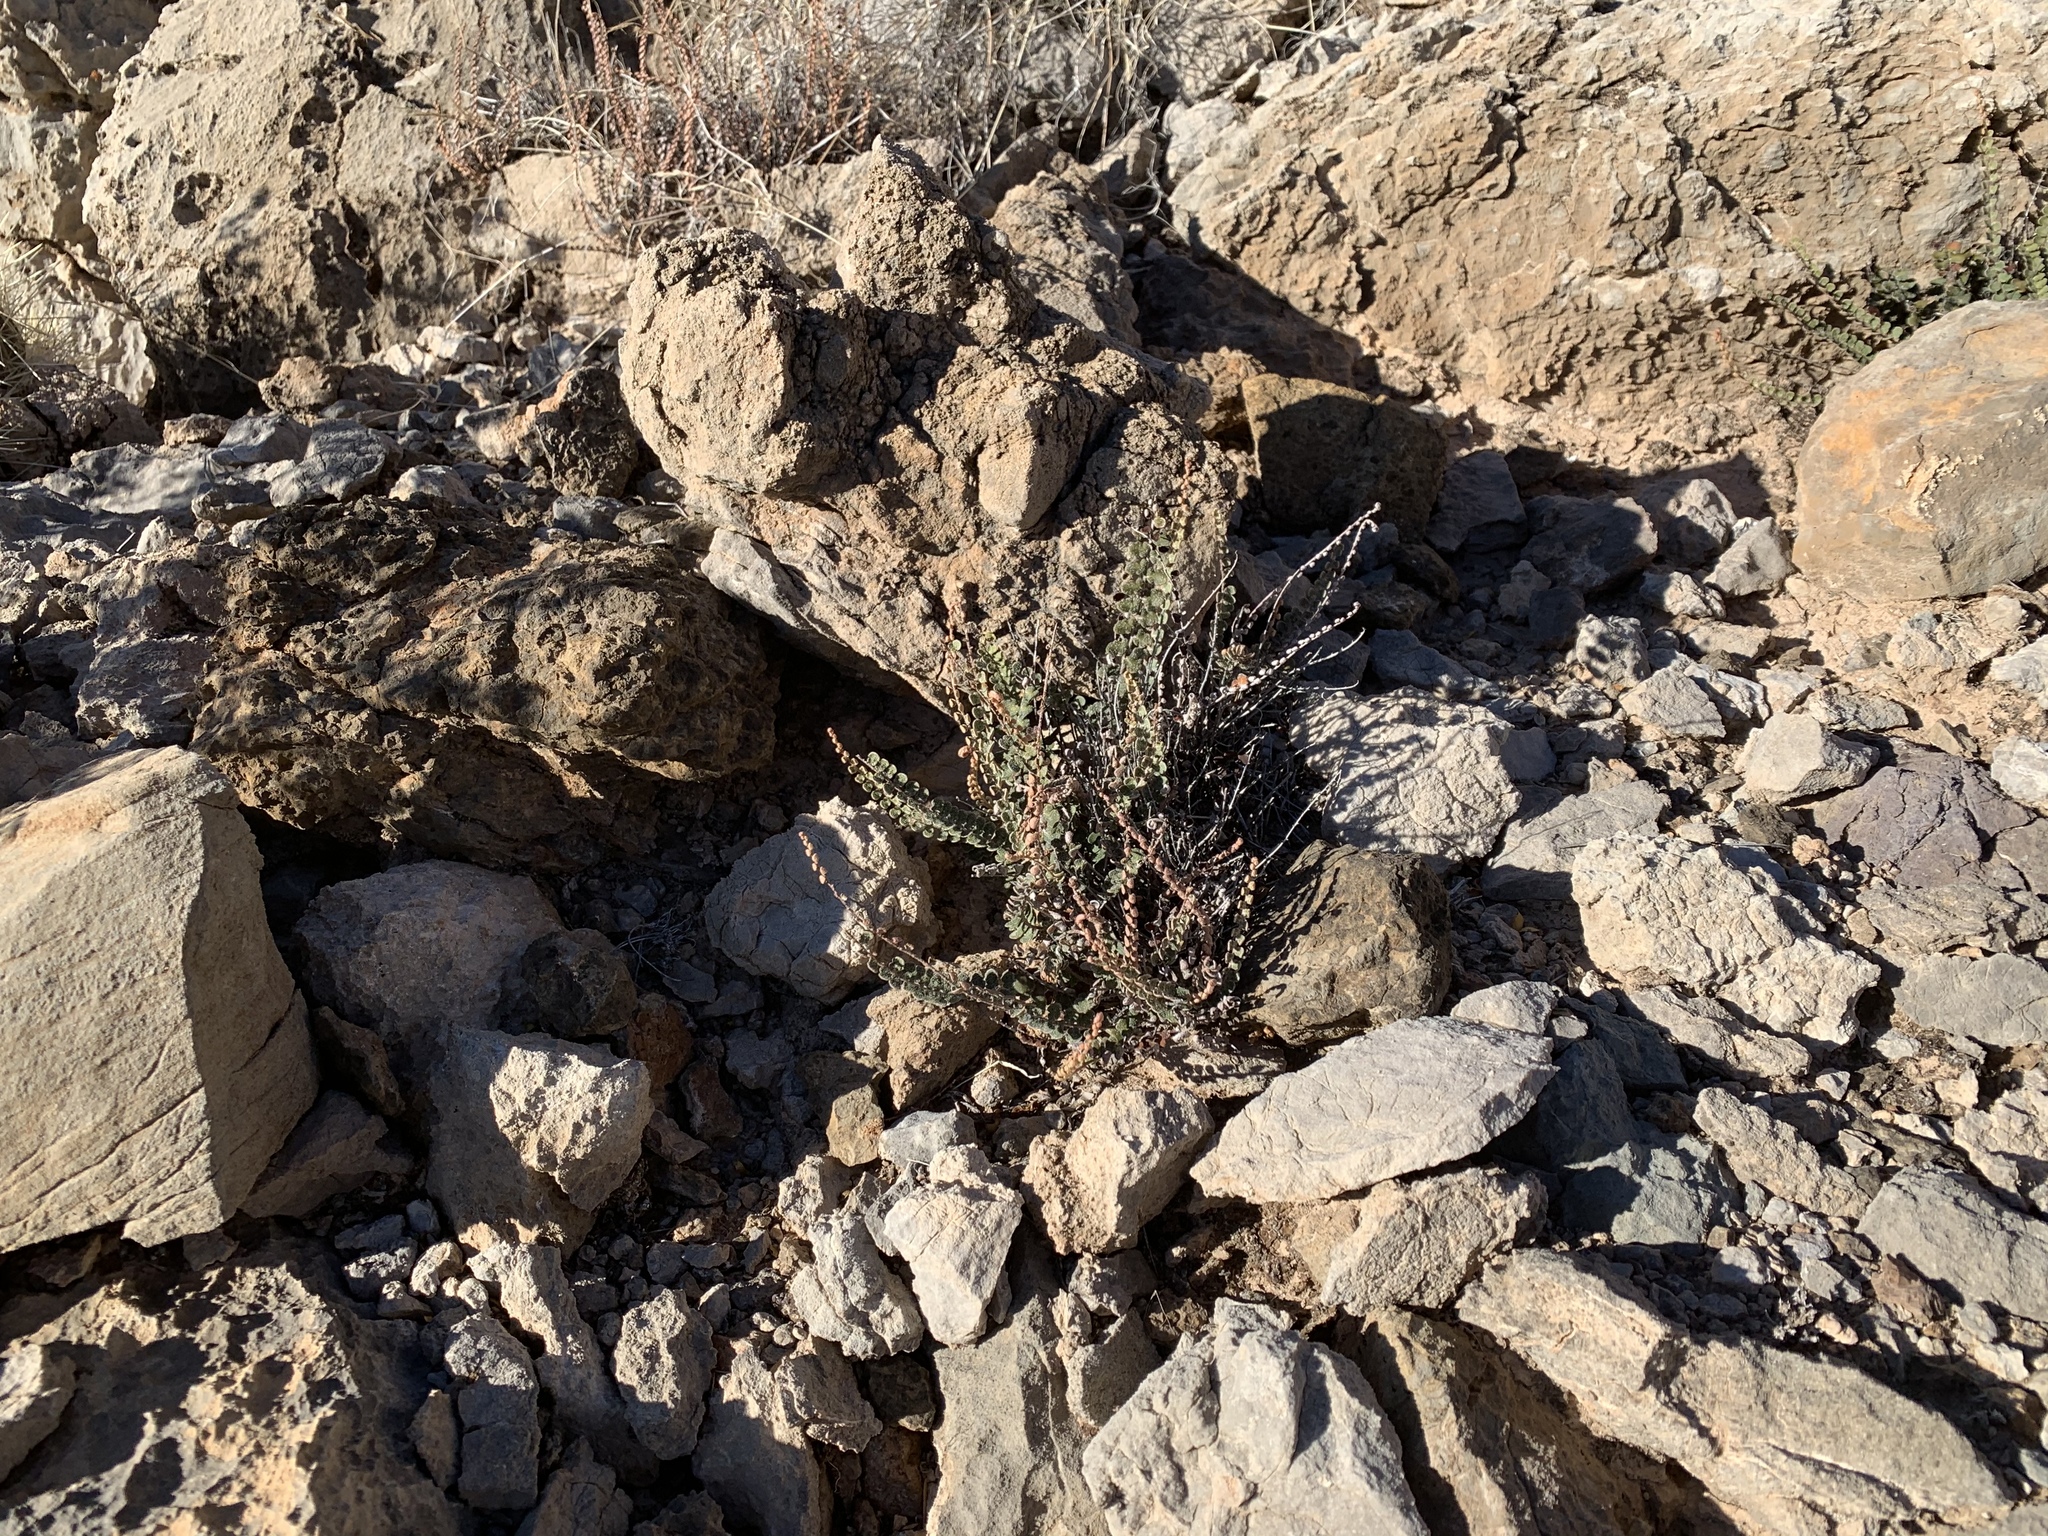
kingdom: Plantae
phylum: Tracheophyta
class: Polypodiopsida
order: Polypodiales
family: Pteridaceae
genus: Astrolepis
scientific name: Astrolepis cochisensis
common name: Scaly cloak fern
